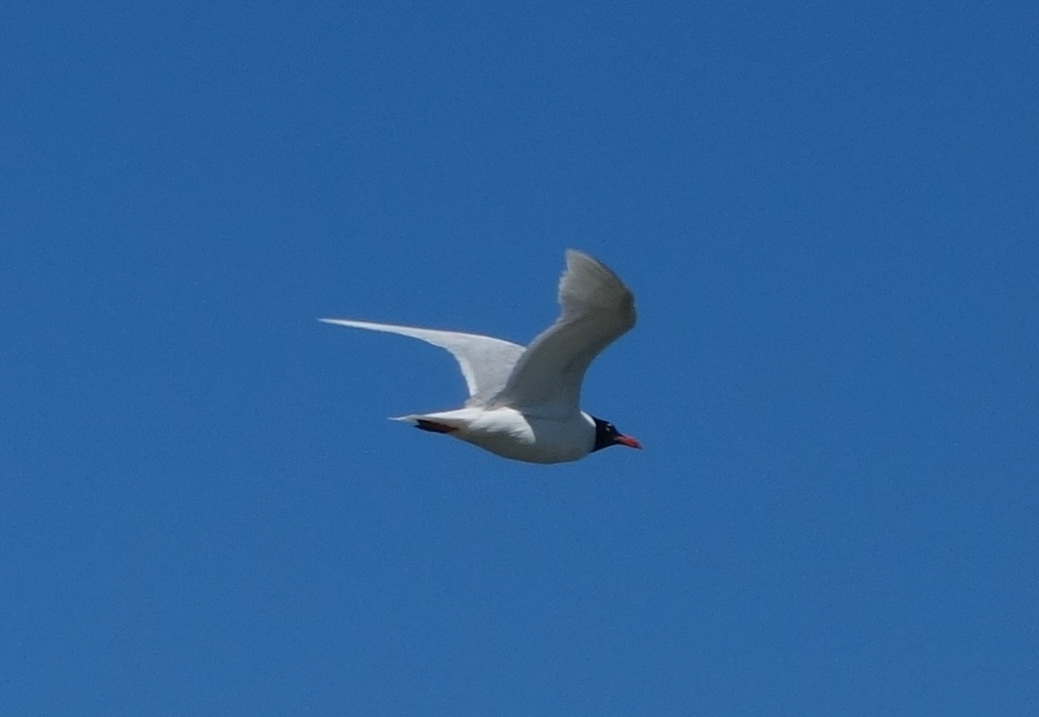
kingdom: Animalia
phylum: Chordata
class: Aves
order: Charadriiformes
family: Laridae
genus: Ichthyaetus
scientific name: Ichthyaetus melanocephalus
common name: Mediterranean gull
